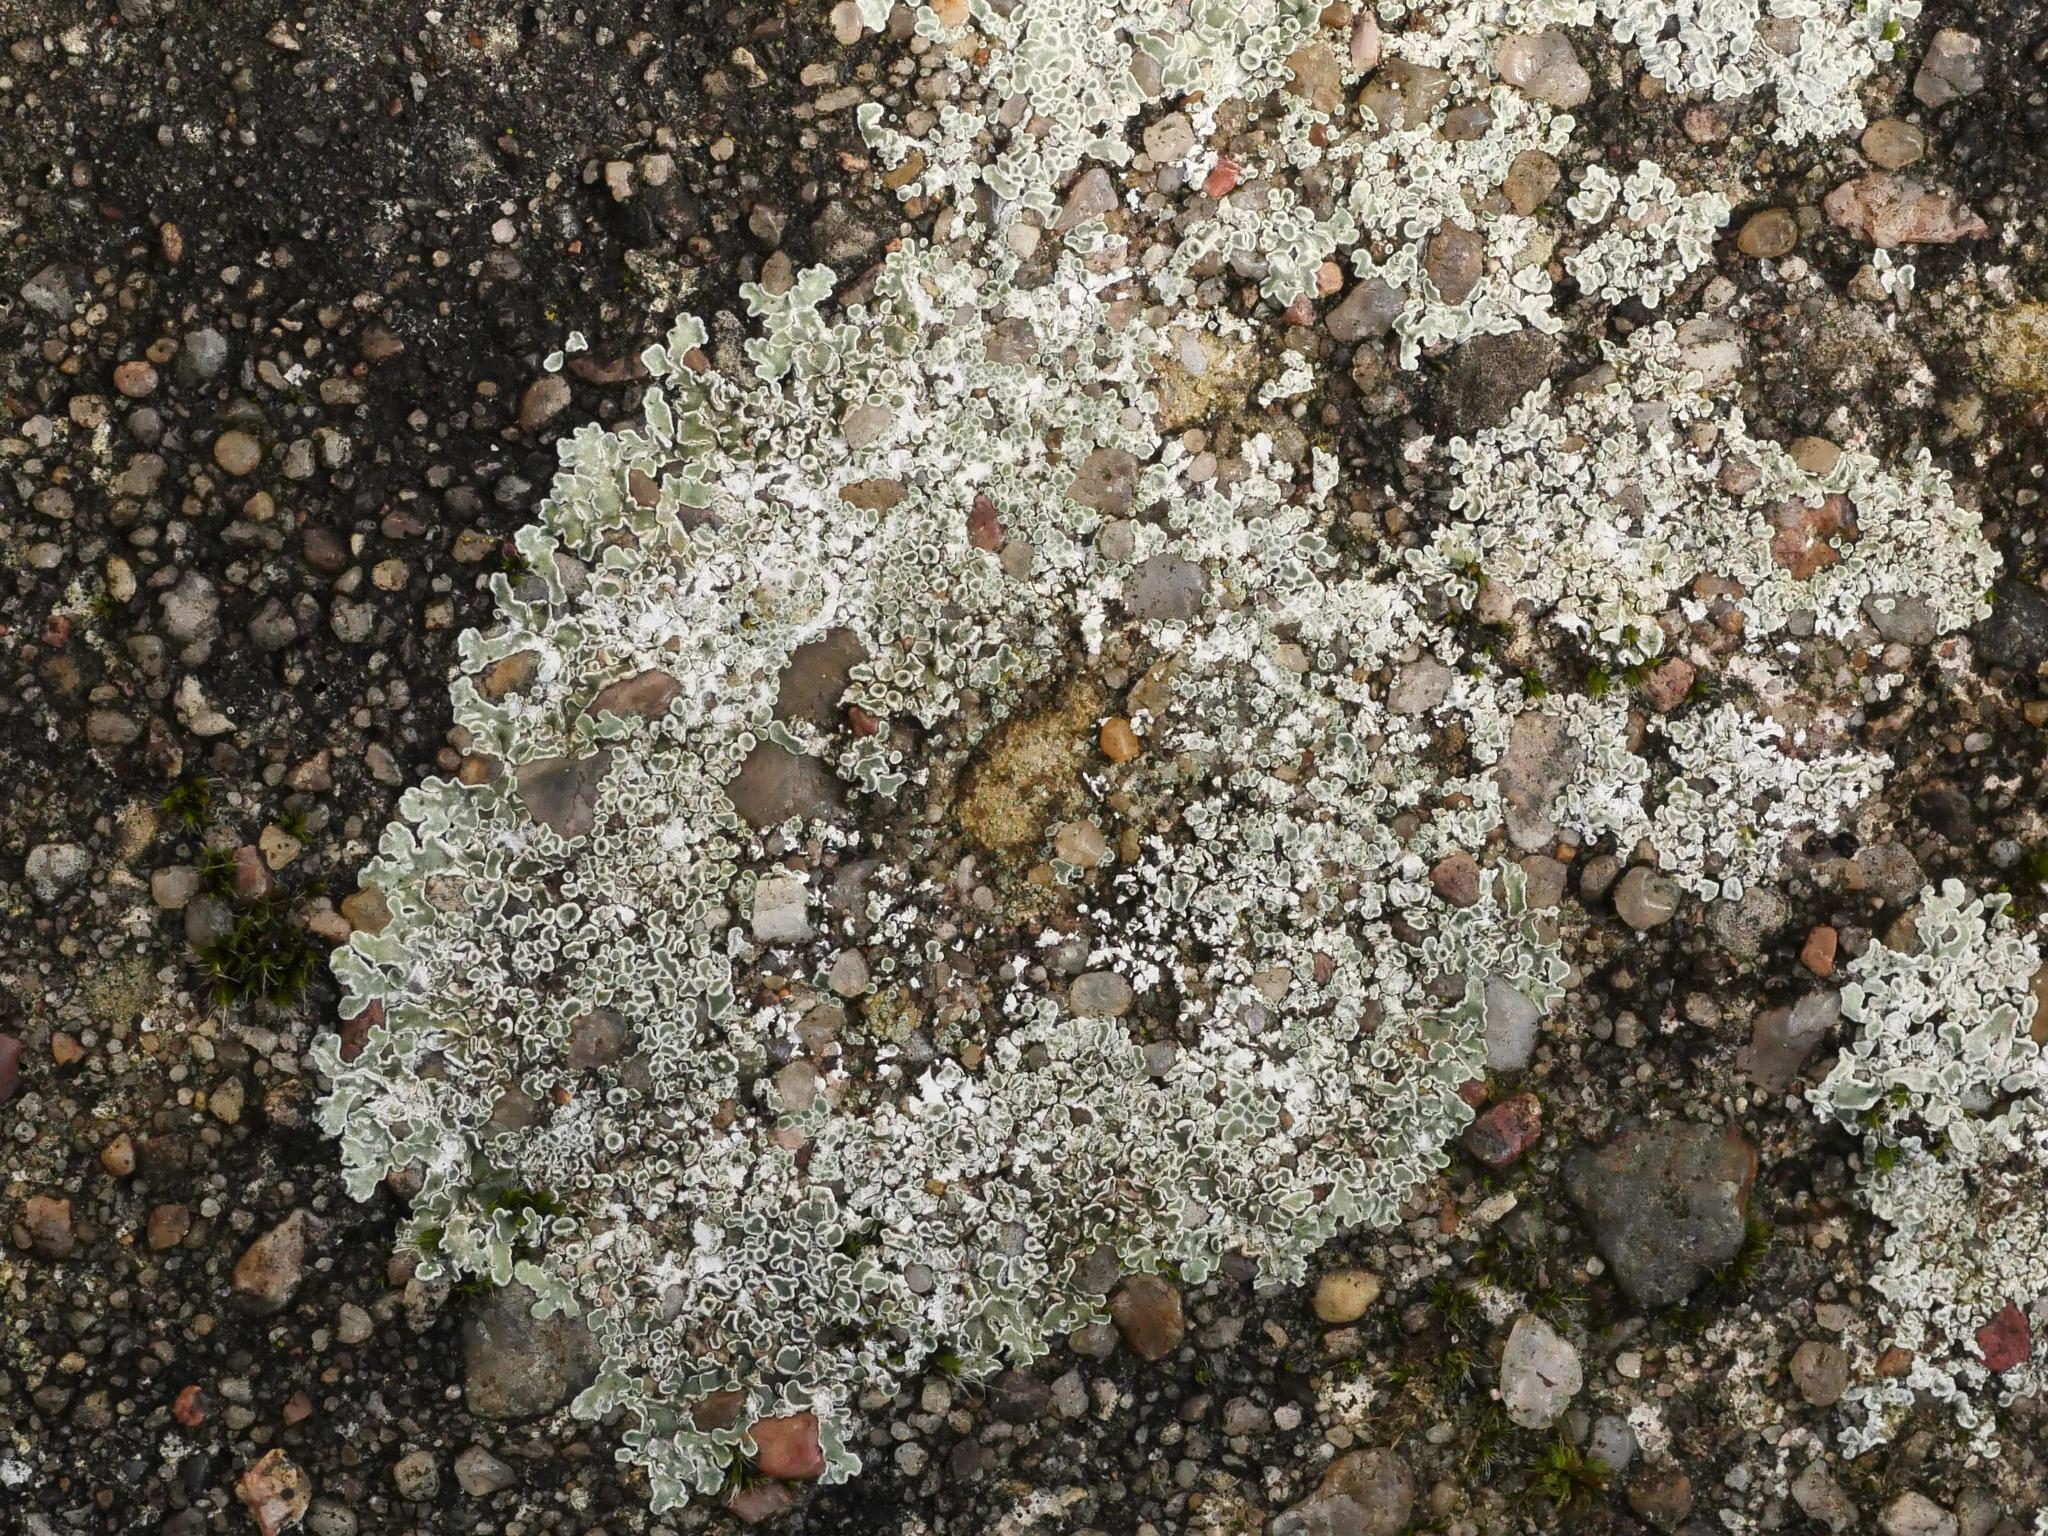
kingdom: Fungi
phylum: Ascomycota
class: Lecanoromycetes
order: Lecanorales
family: Lecanoraceae
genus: Protoparmeliopsis
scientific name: Protoparmeliopsis muralis
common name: Stonewall rim lichen
